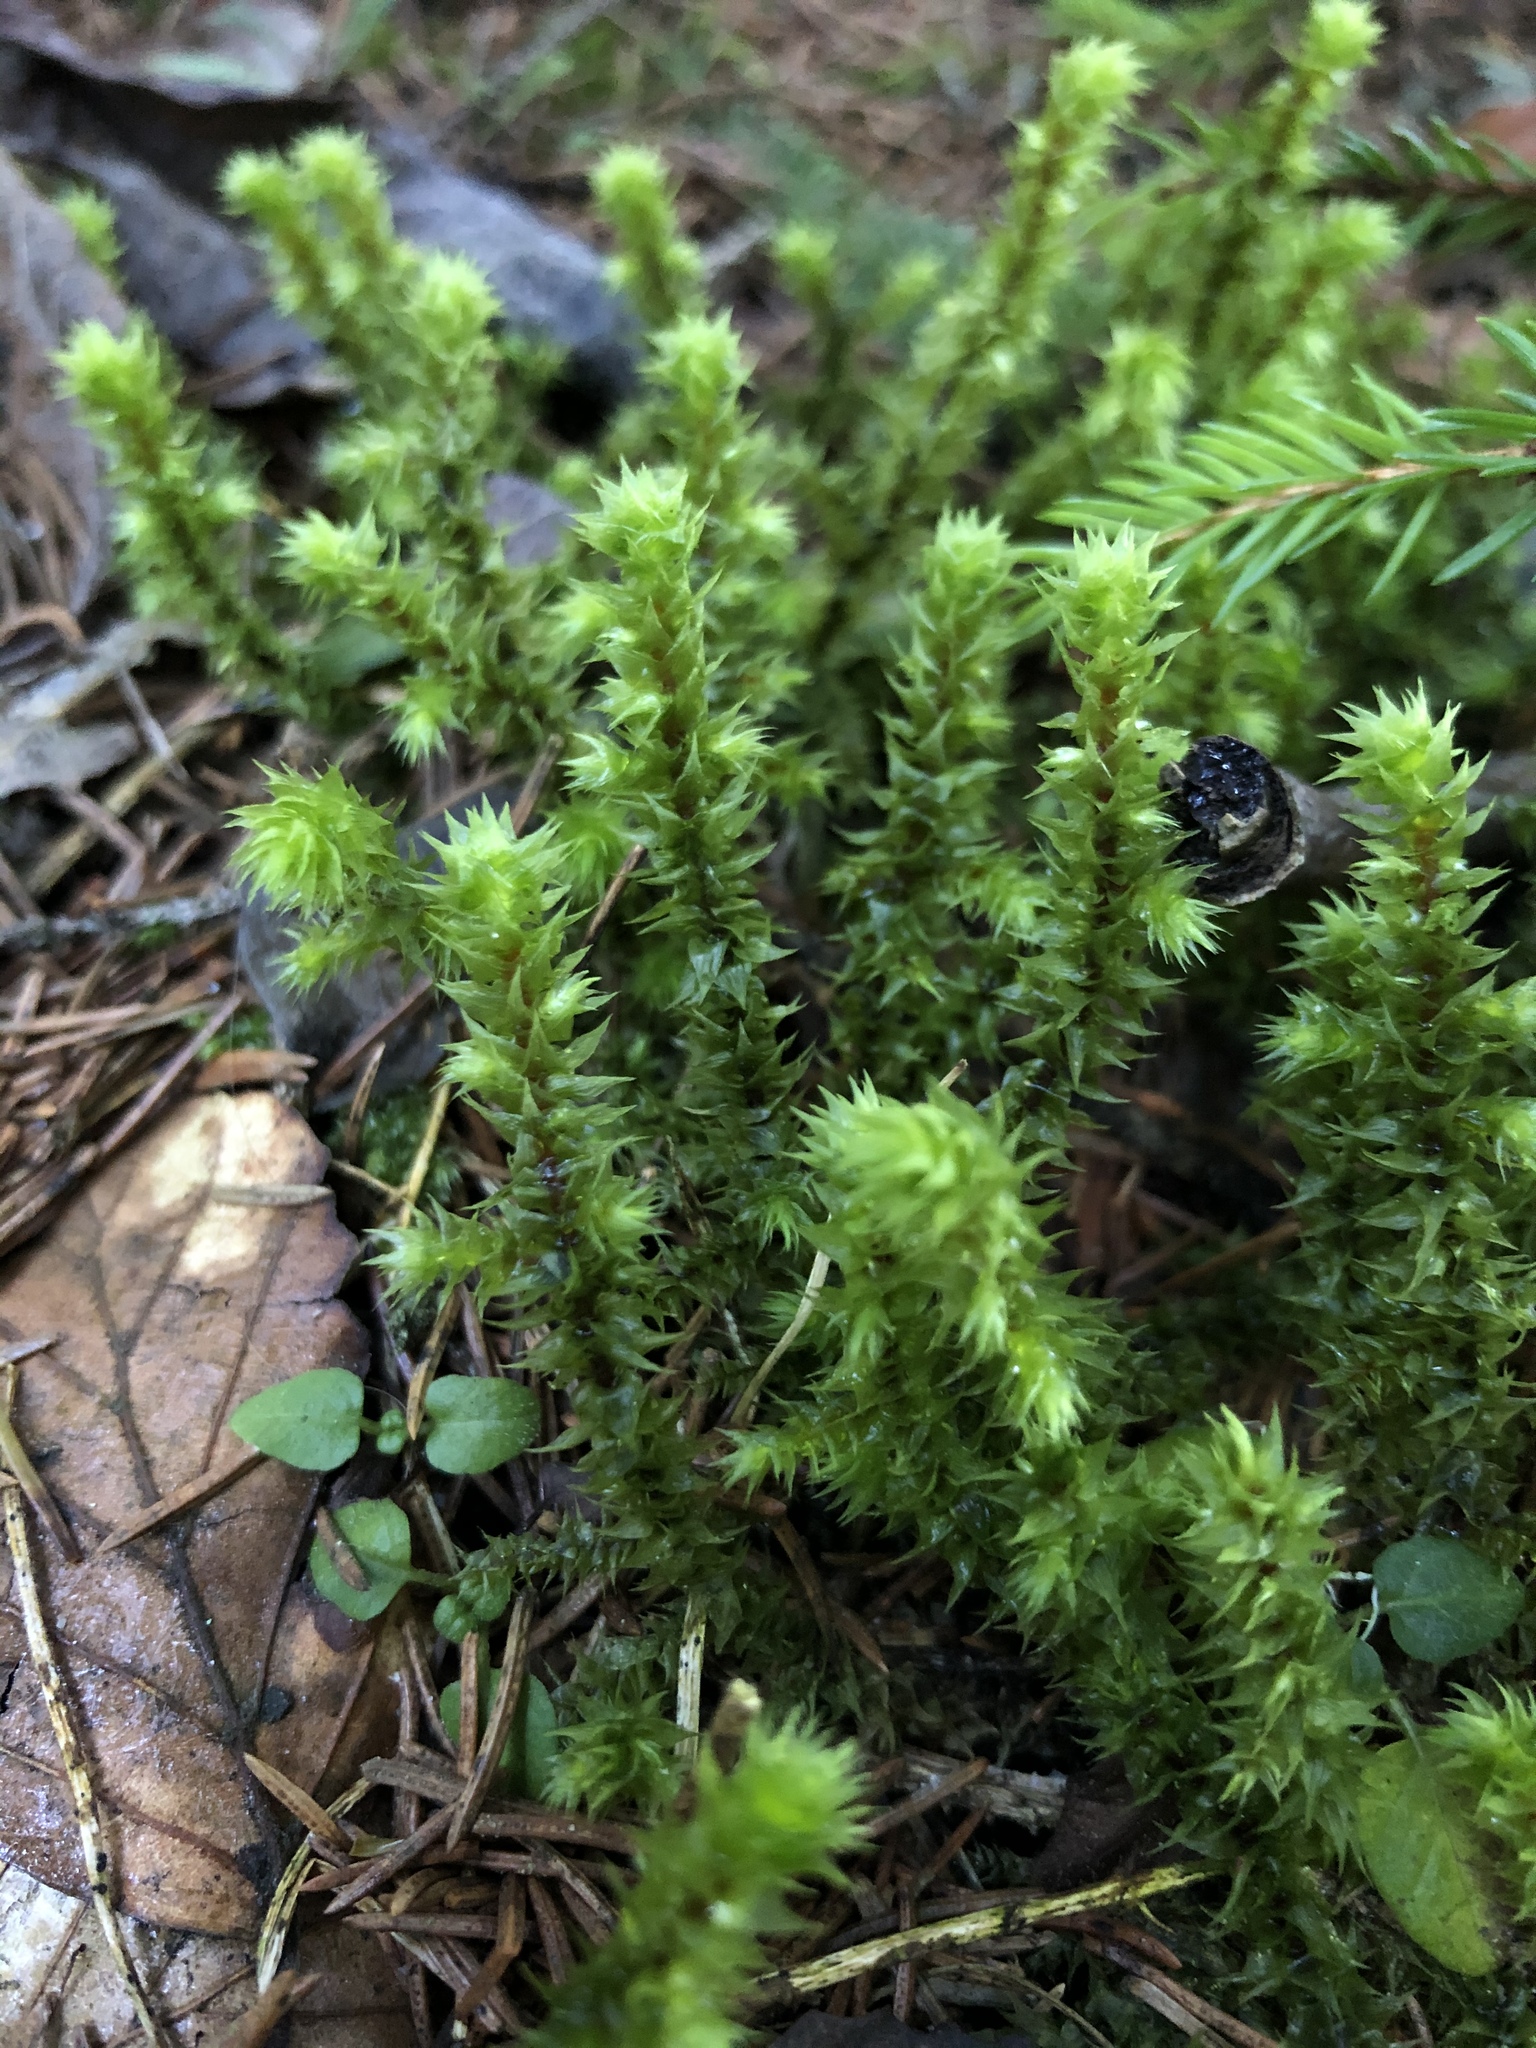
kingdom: Plantae
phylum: Bryophyta
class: Bryopsida
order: Hypnales
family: Hylocomiaceae
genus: Hylocomiadelphus
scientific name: Hylocomiadelphus triquetrus
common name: Rough goose neck moss
